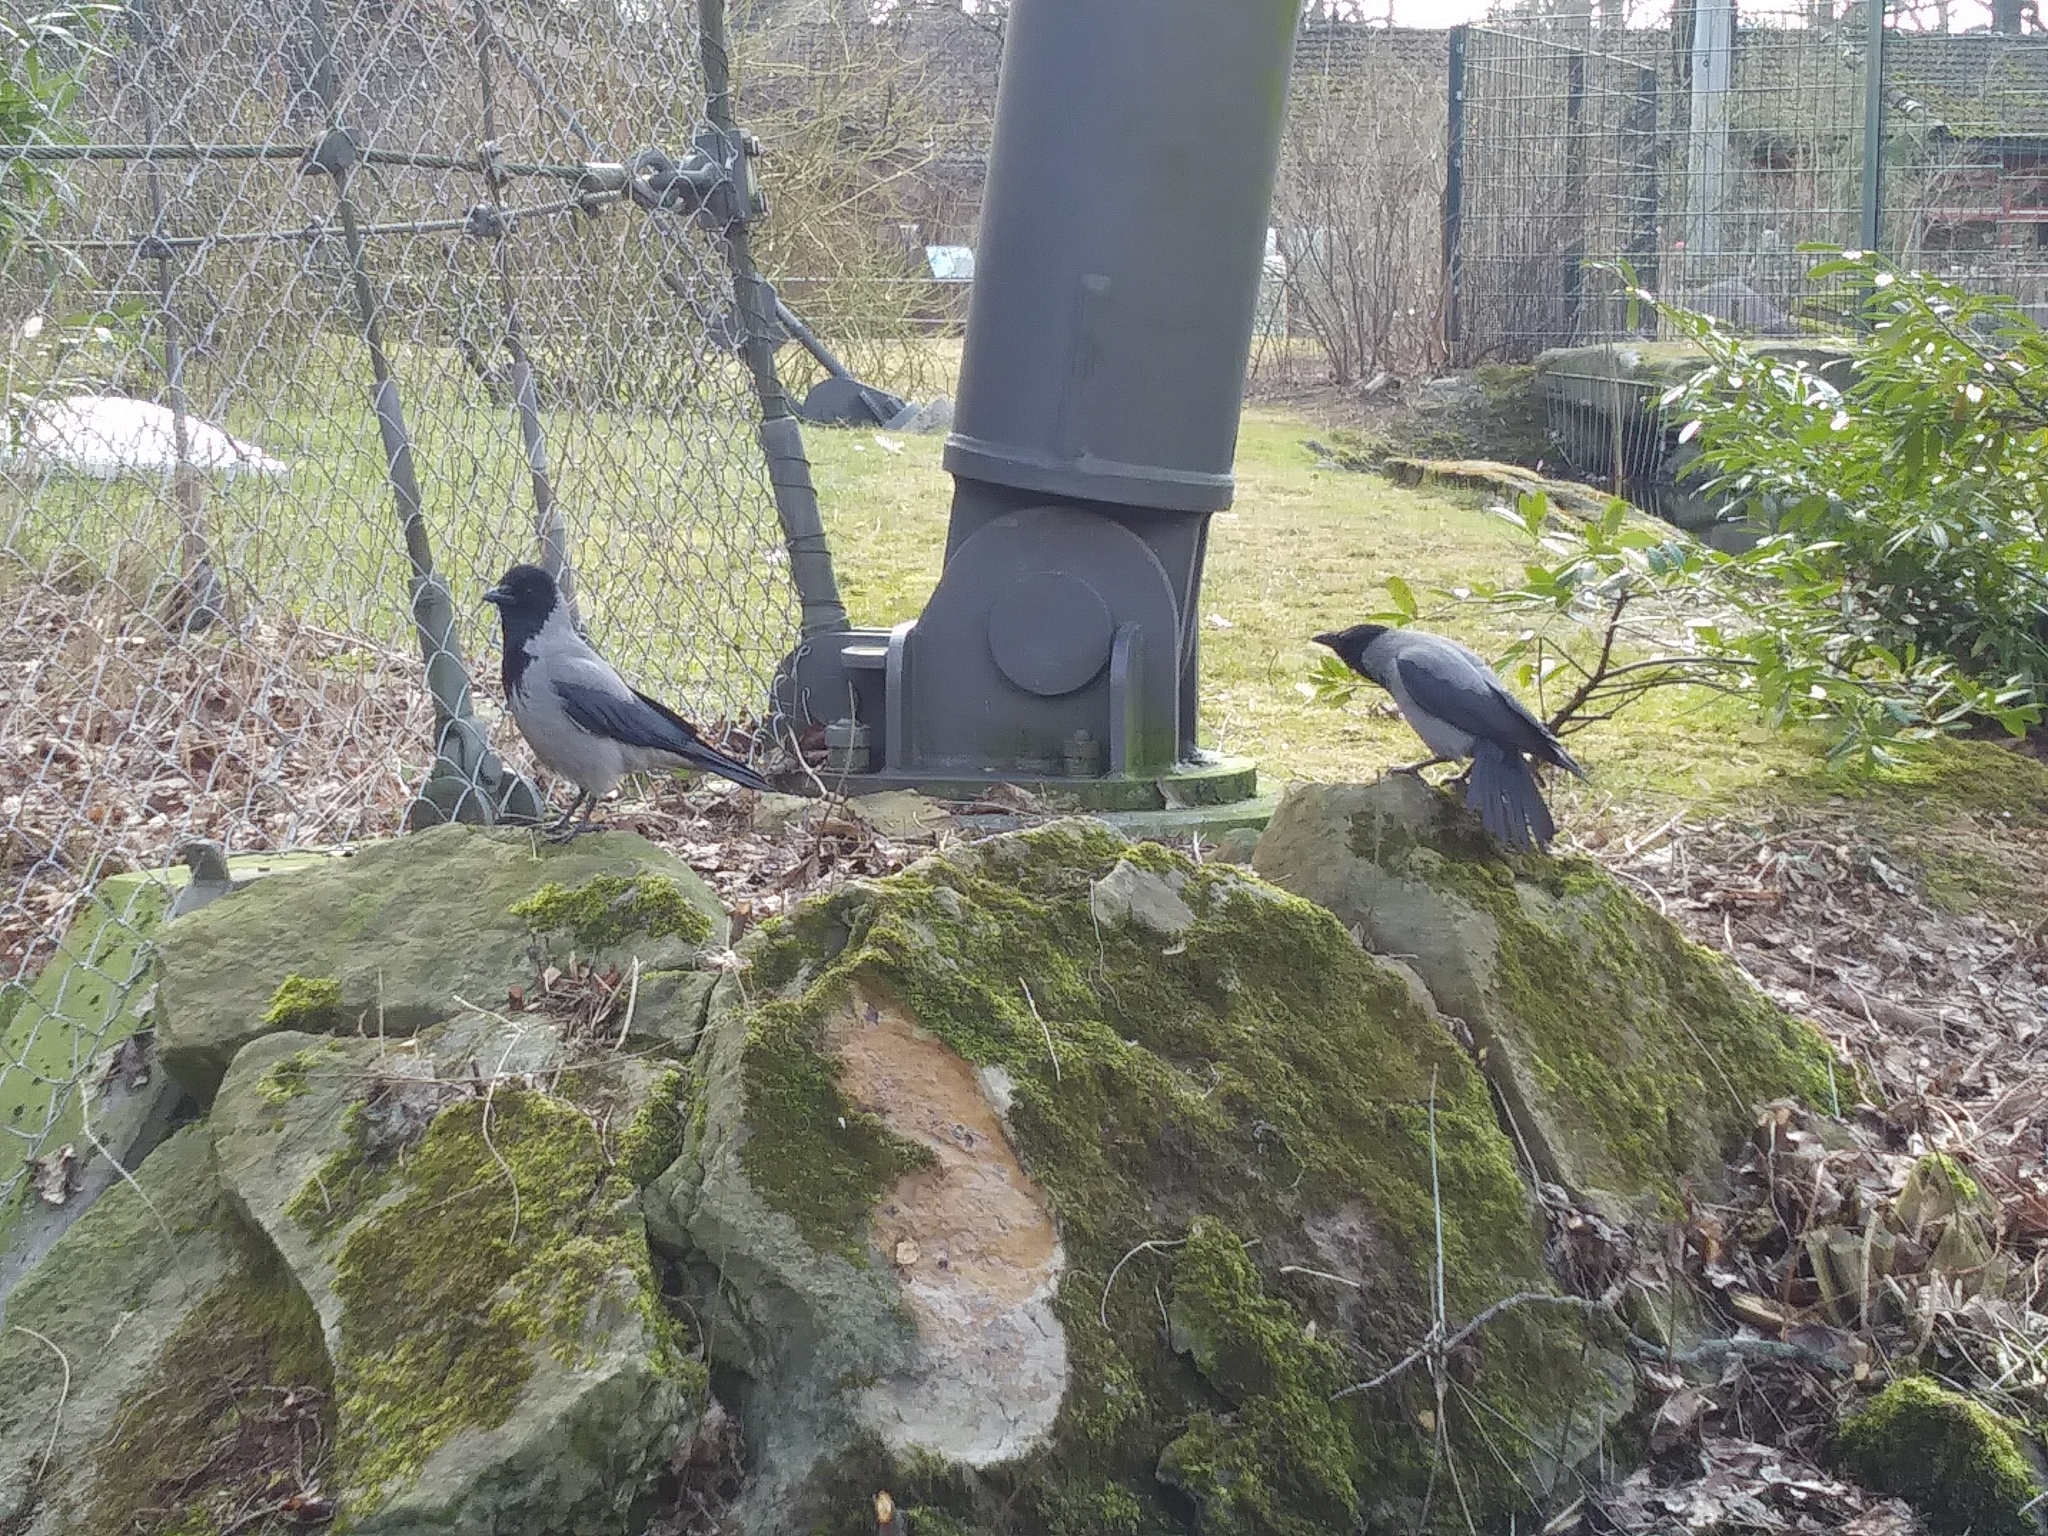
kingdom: Animalia
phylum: Chordata
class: Aves
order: Passeriformes
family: Corvidae
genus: Corvus
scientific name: Corvus cornix
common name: Hooded crow
